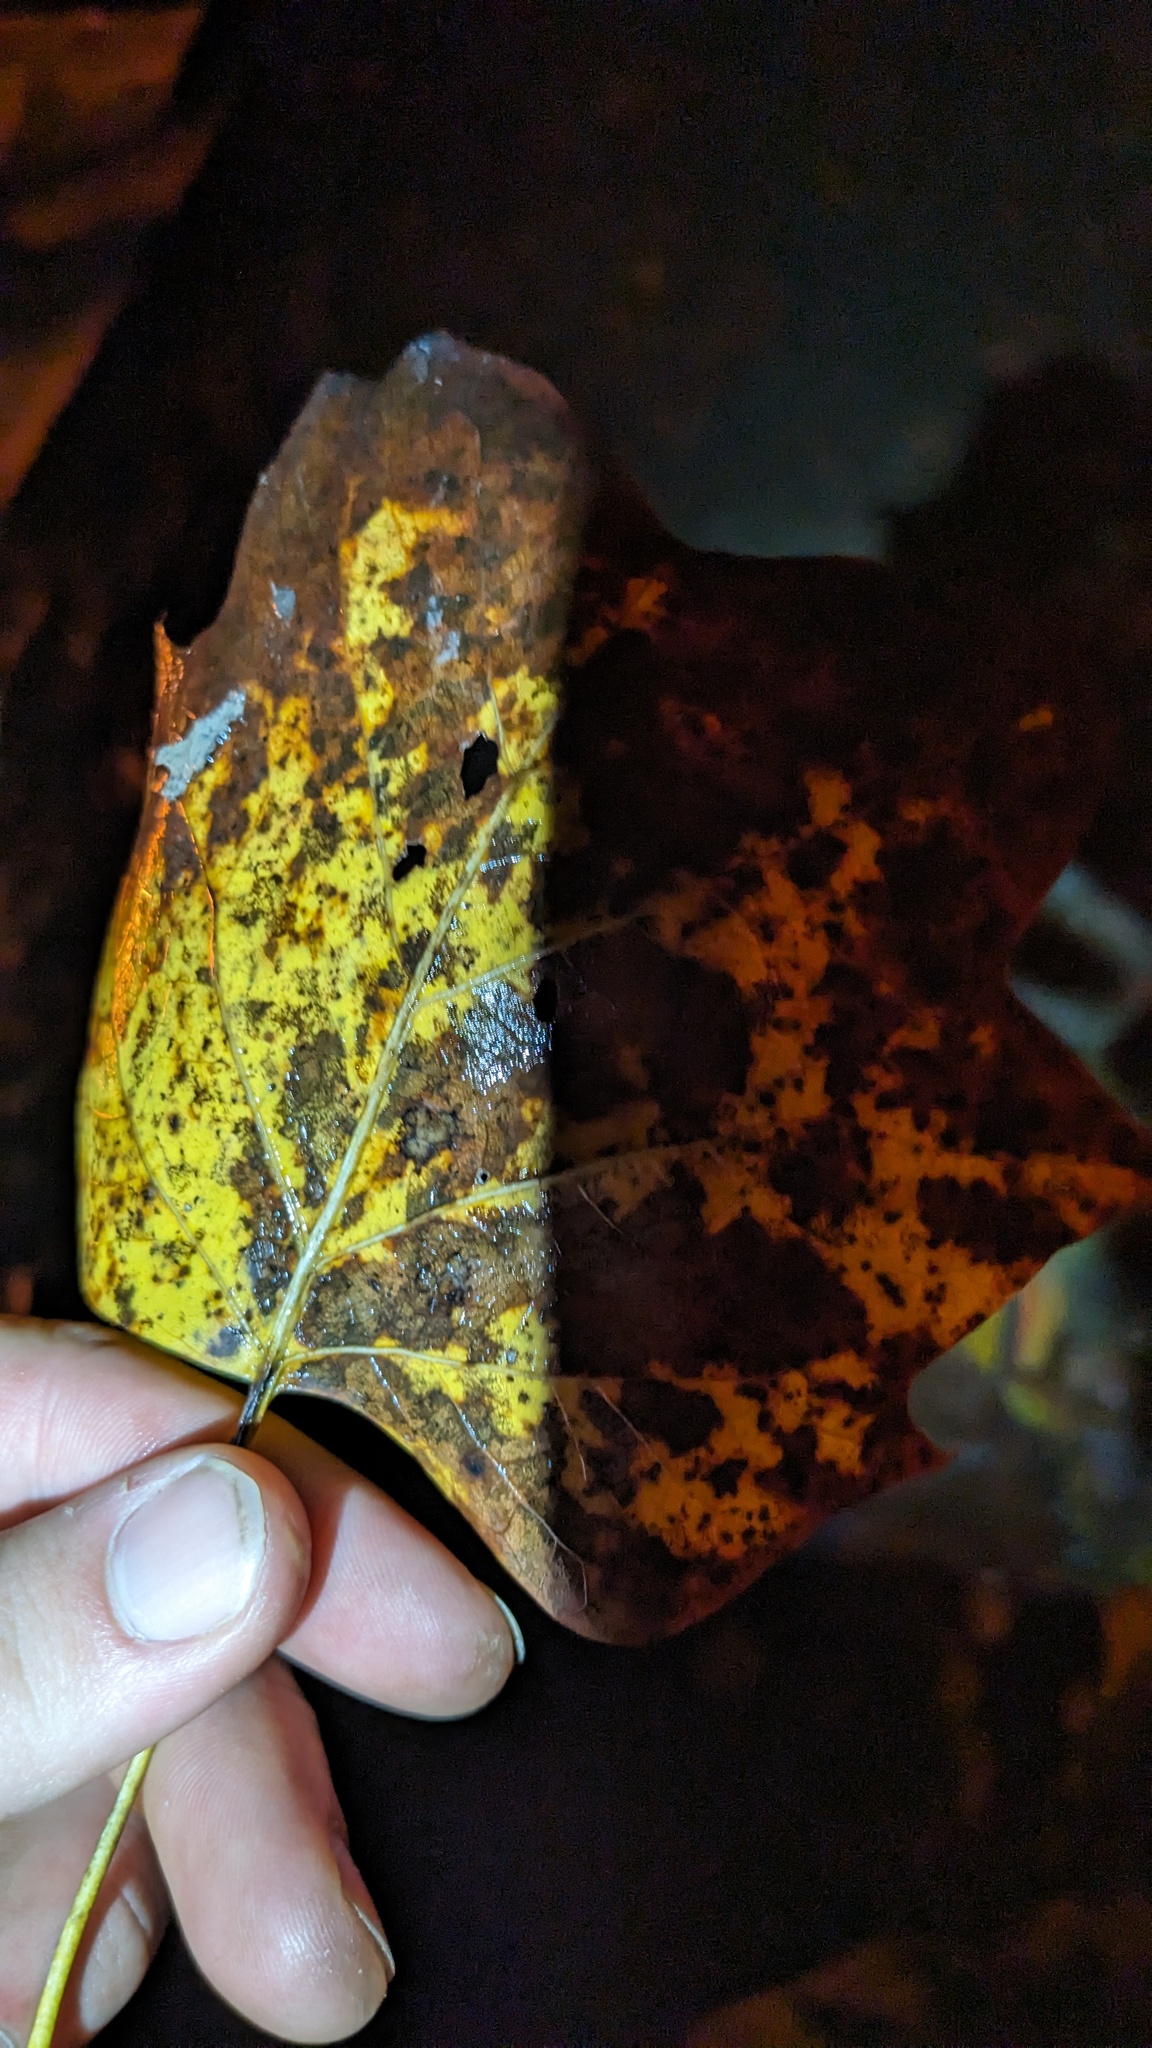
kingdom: Plantae
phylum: Tracheophyta
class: Magnoliopsida
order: Magnoliales
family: Magnoliaceae
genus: Liriodendron
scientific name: Liriodendron tulipifera
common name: Tulip tree
